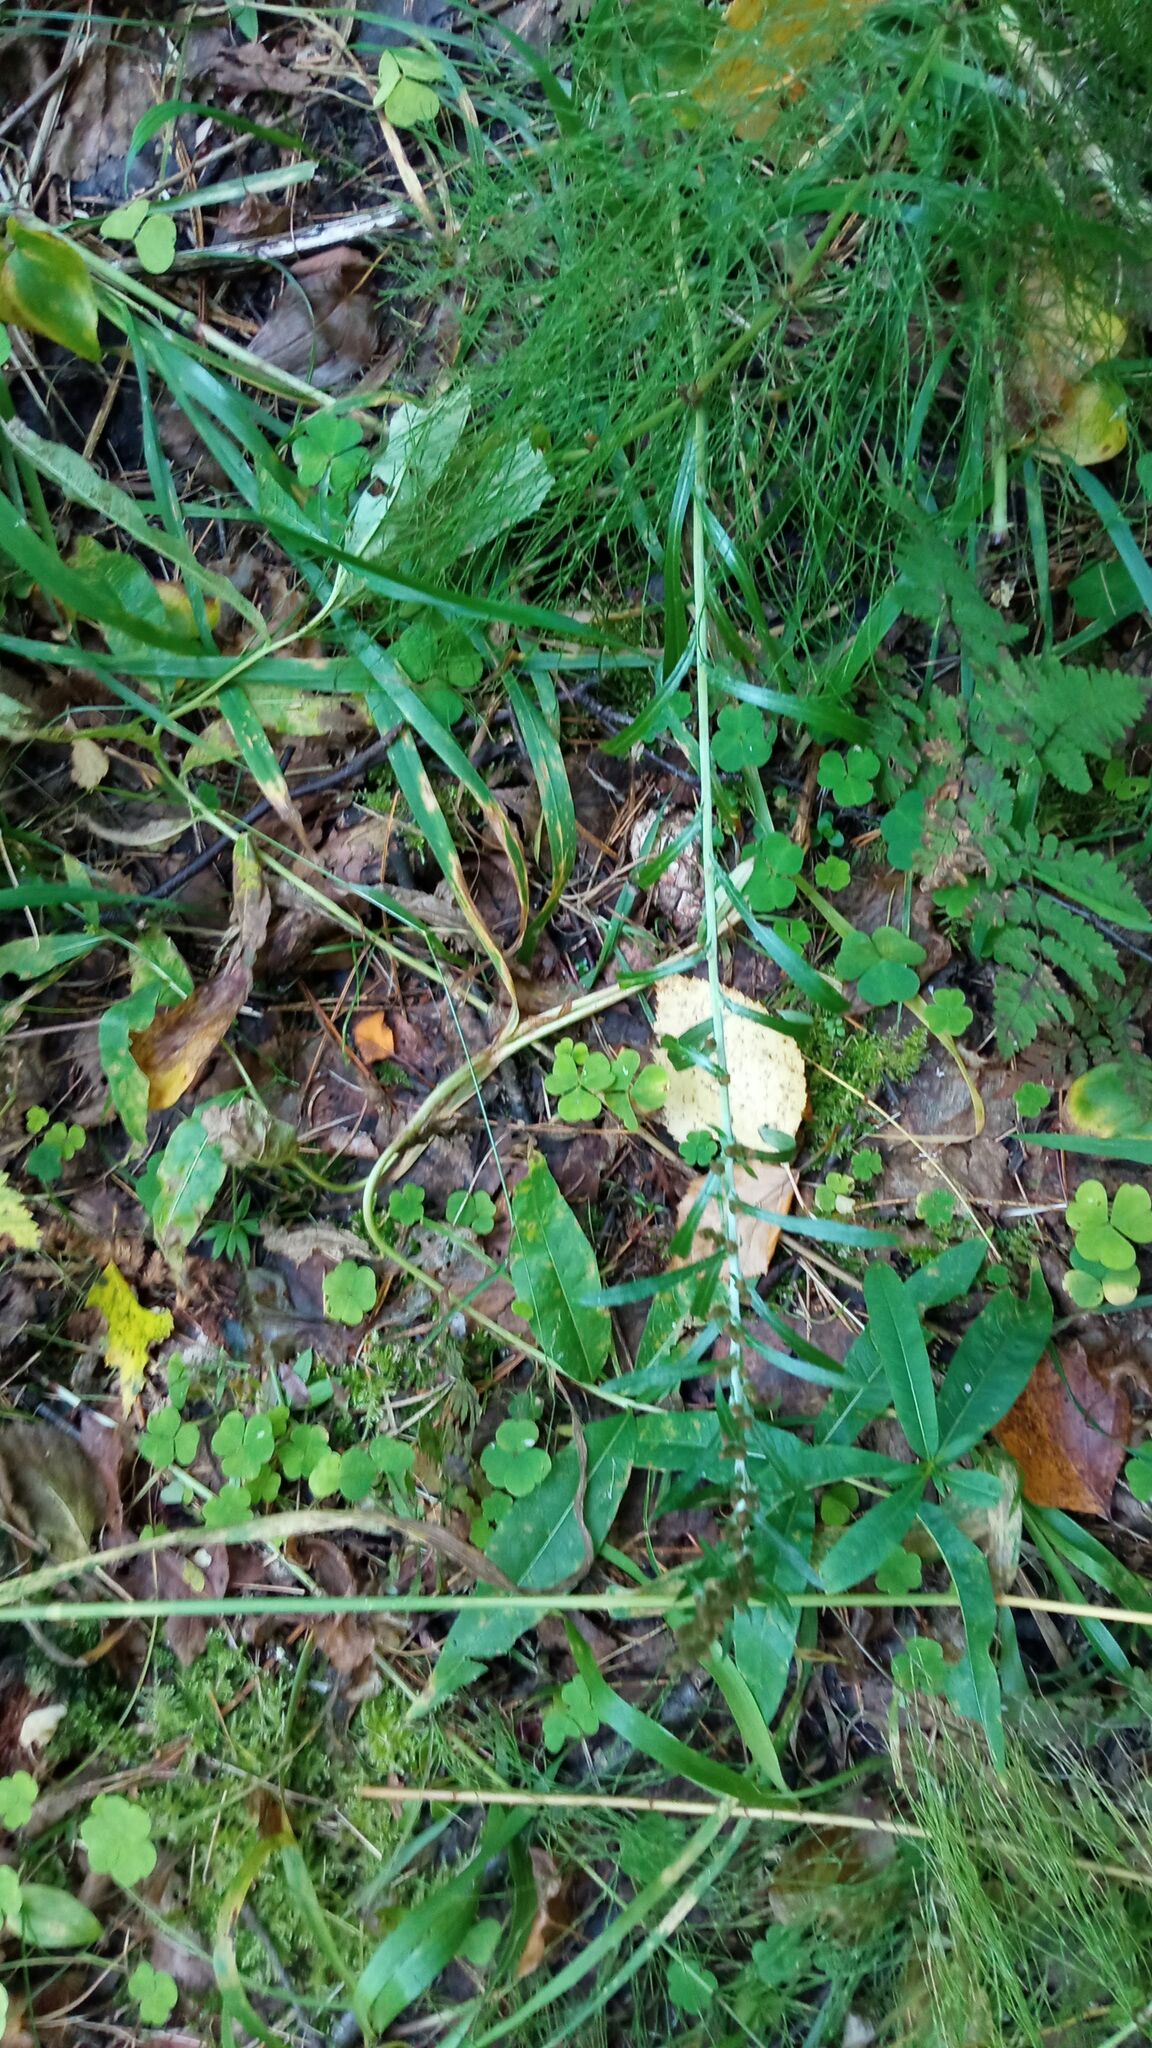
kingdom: Plantae
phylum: Tracheophyta
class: Magnoliopsida
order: Asterales
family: Asteraceae
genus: Omalotheca
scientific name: Omalotheca sylvatica
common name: Heath cudweed
